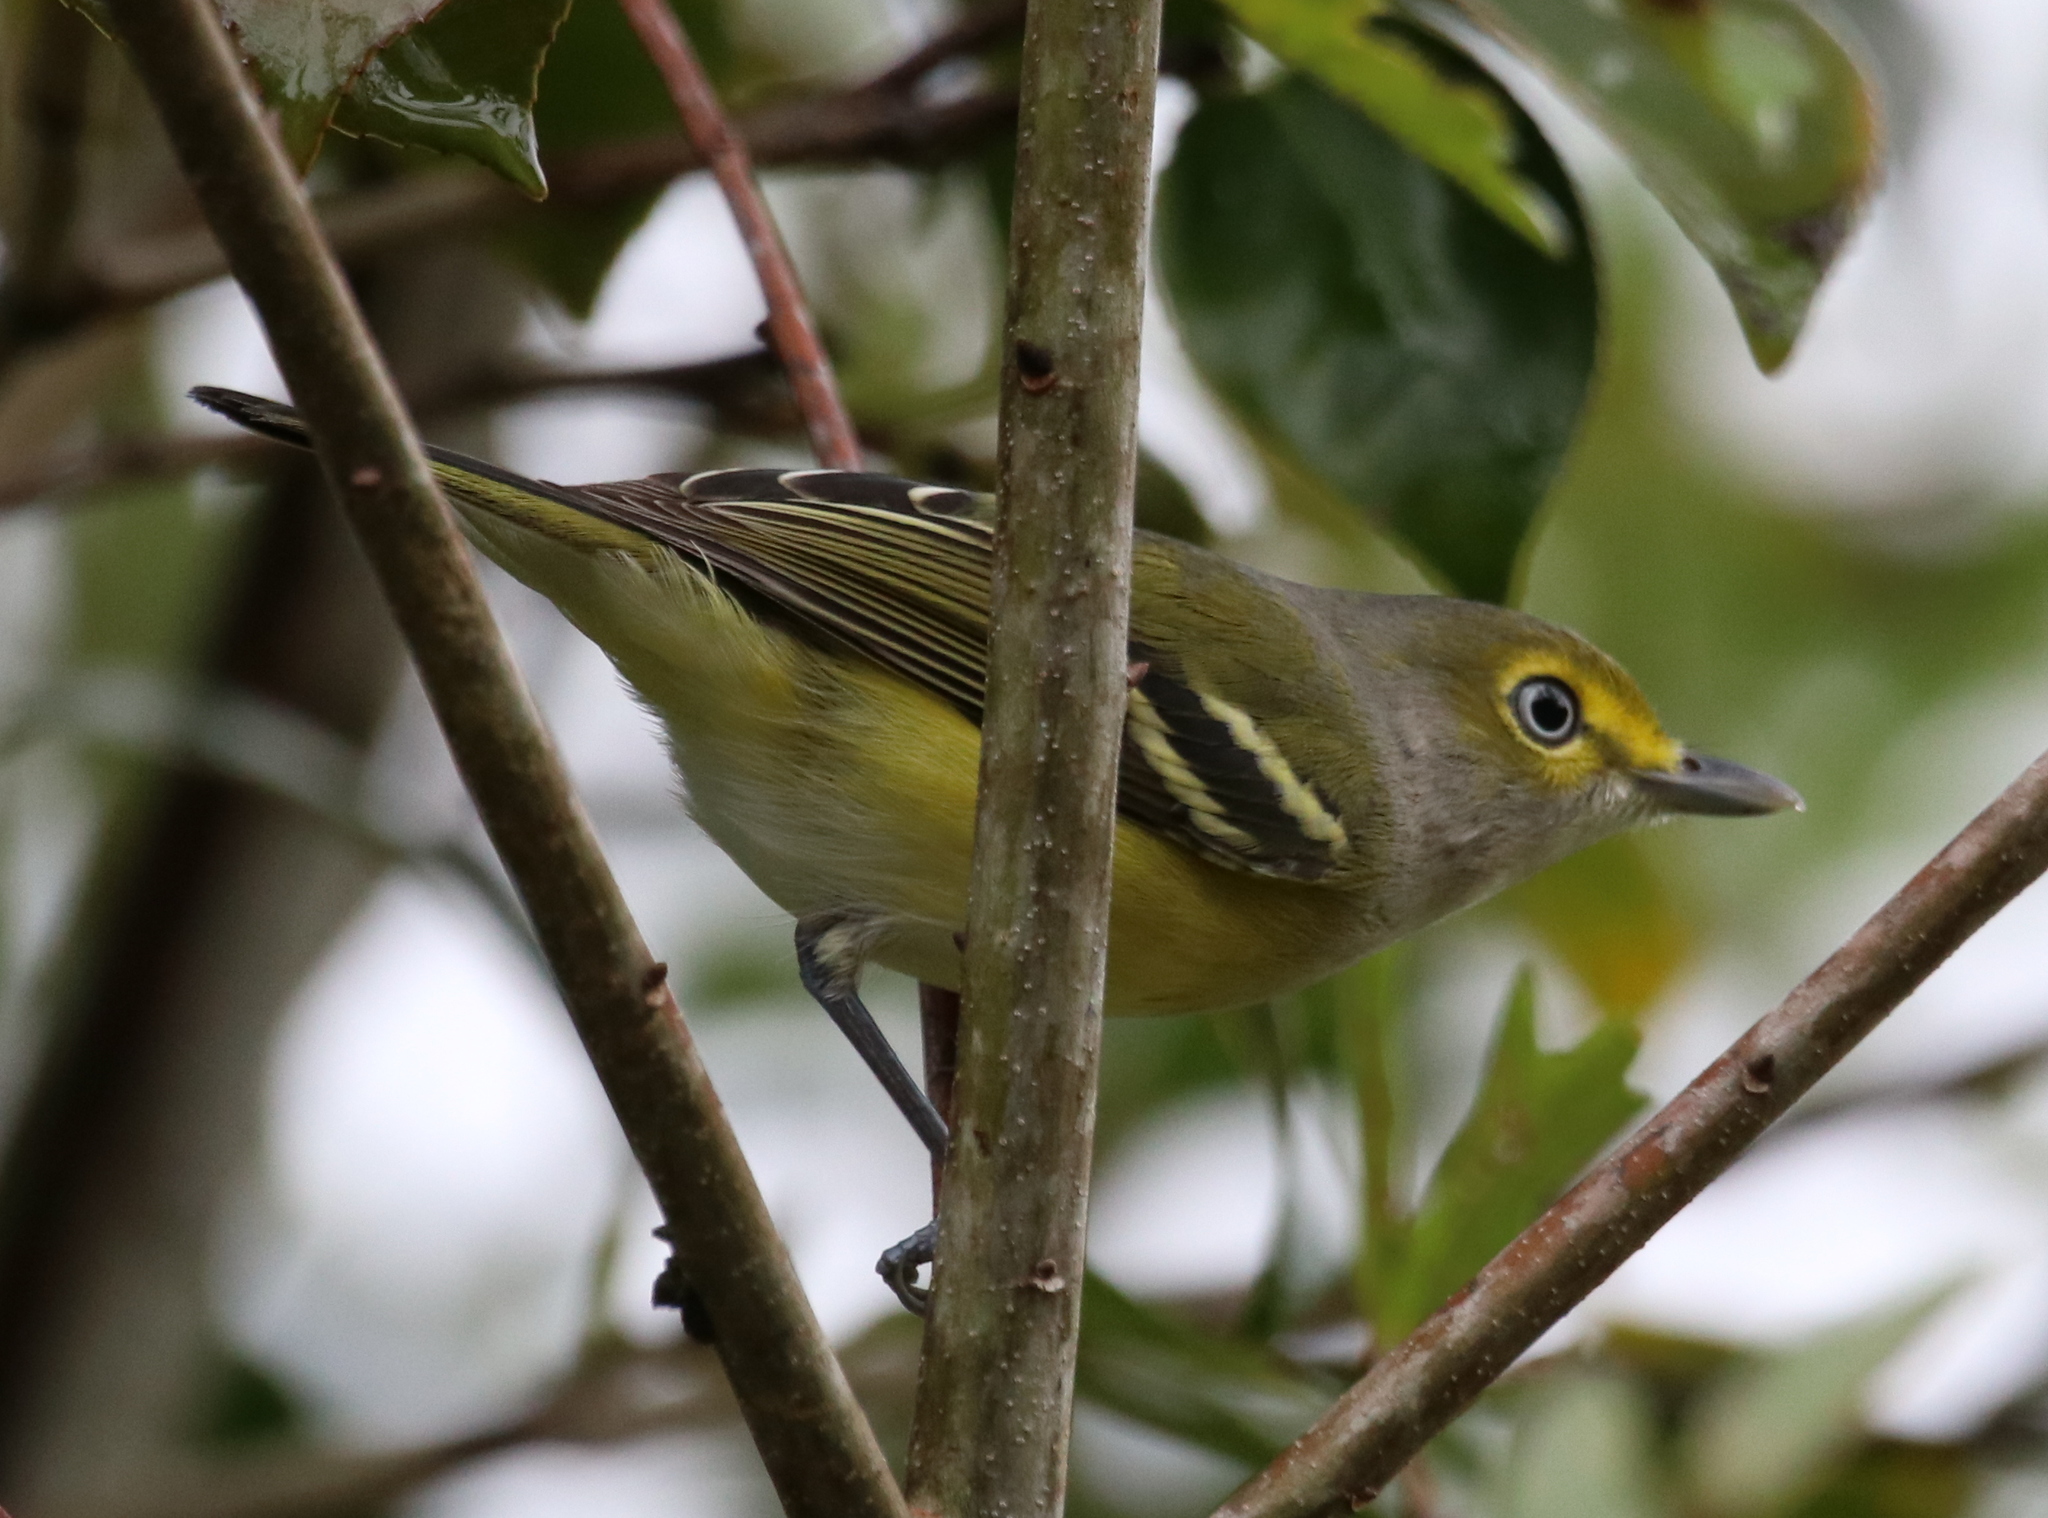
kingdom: Animalia
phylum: Chordata
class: Aves
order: Passeriformes
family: Vireonidae
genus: Vireo
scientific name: Vireo griseus
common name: White-eyed vireo
